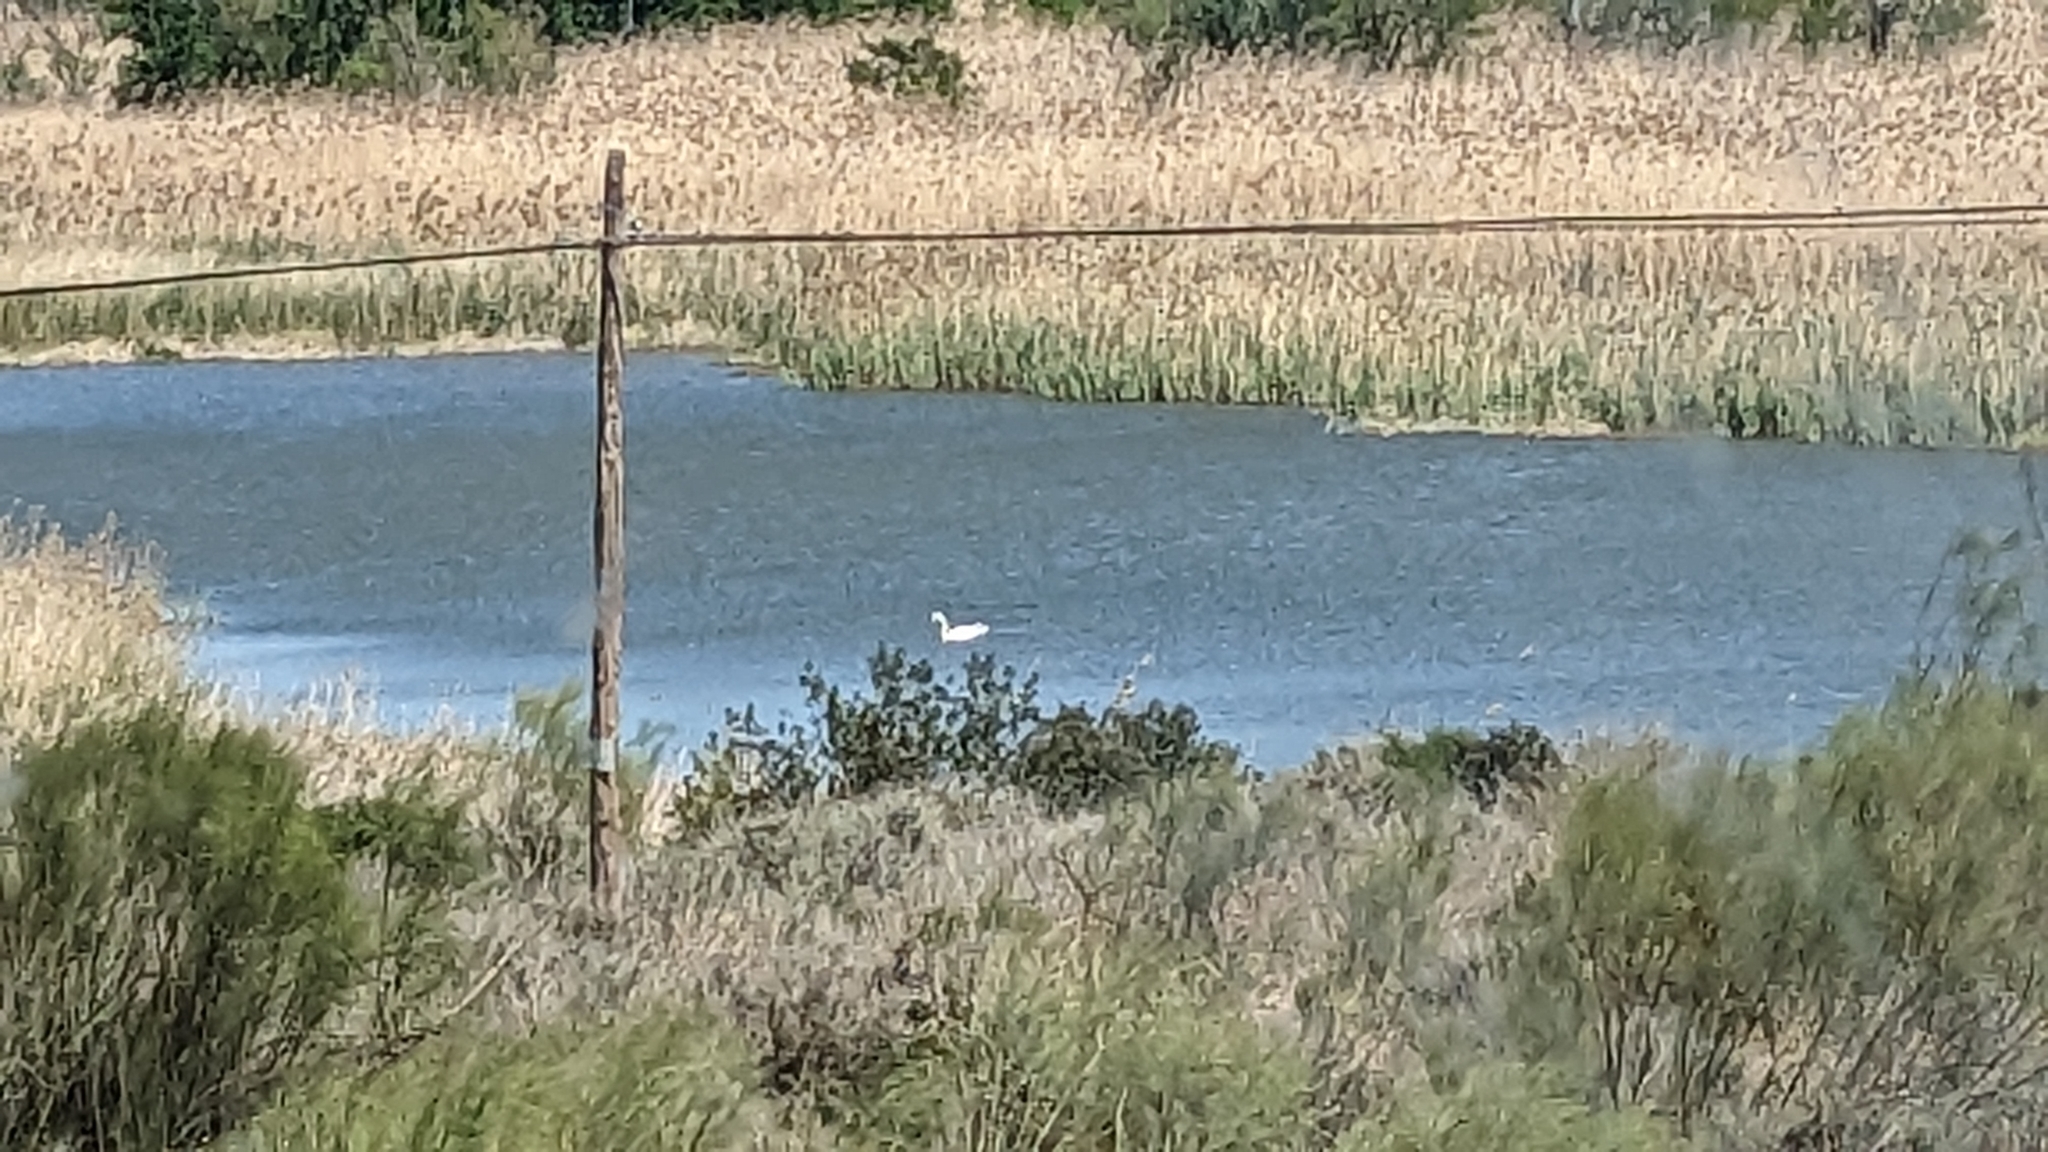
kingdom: Animalia
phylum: Chordata
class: Aves
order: Anseriformes
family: Anatidae
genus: Cygnus
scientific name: Cygnus olor
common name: Mute swan
